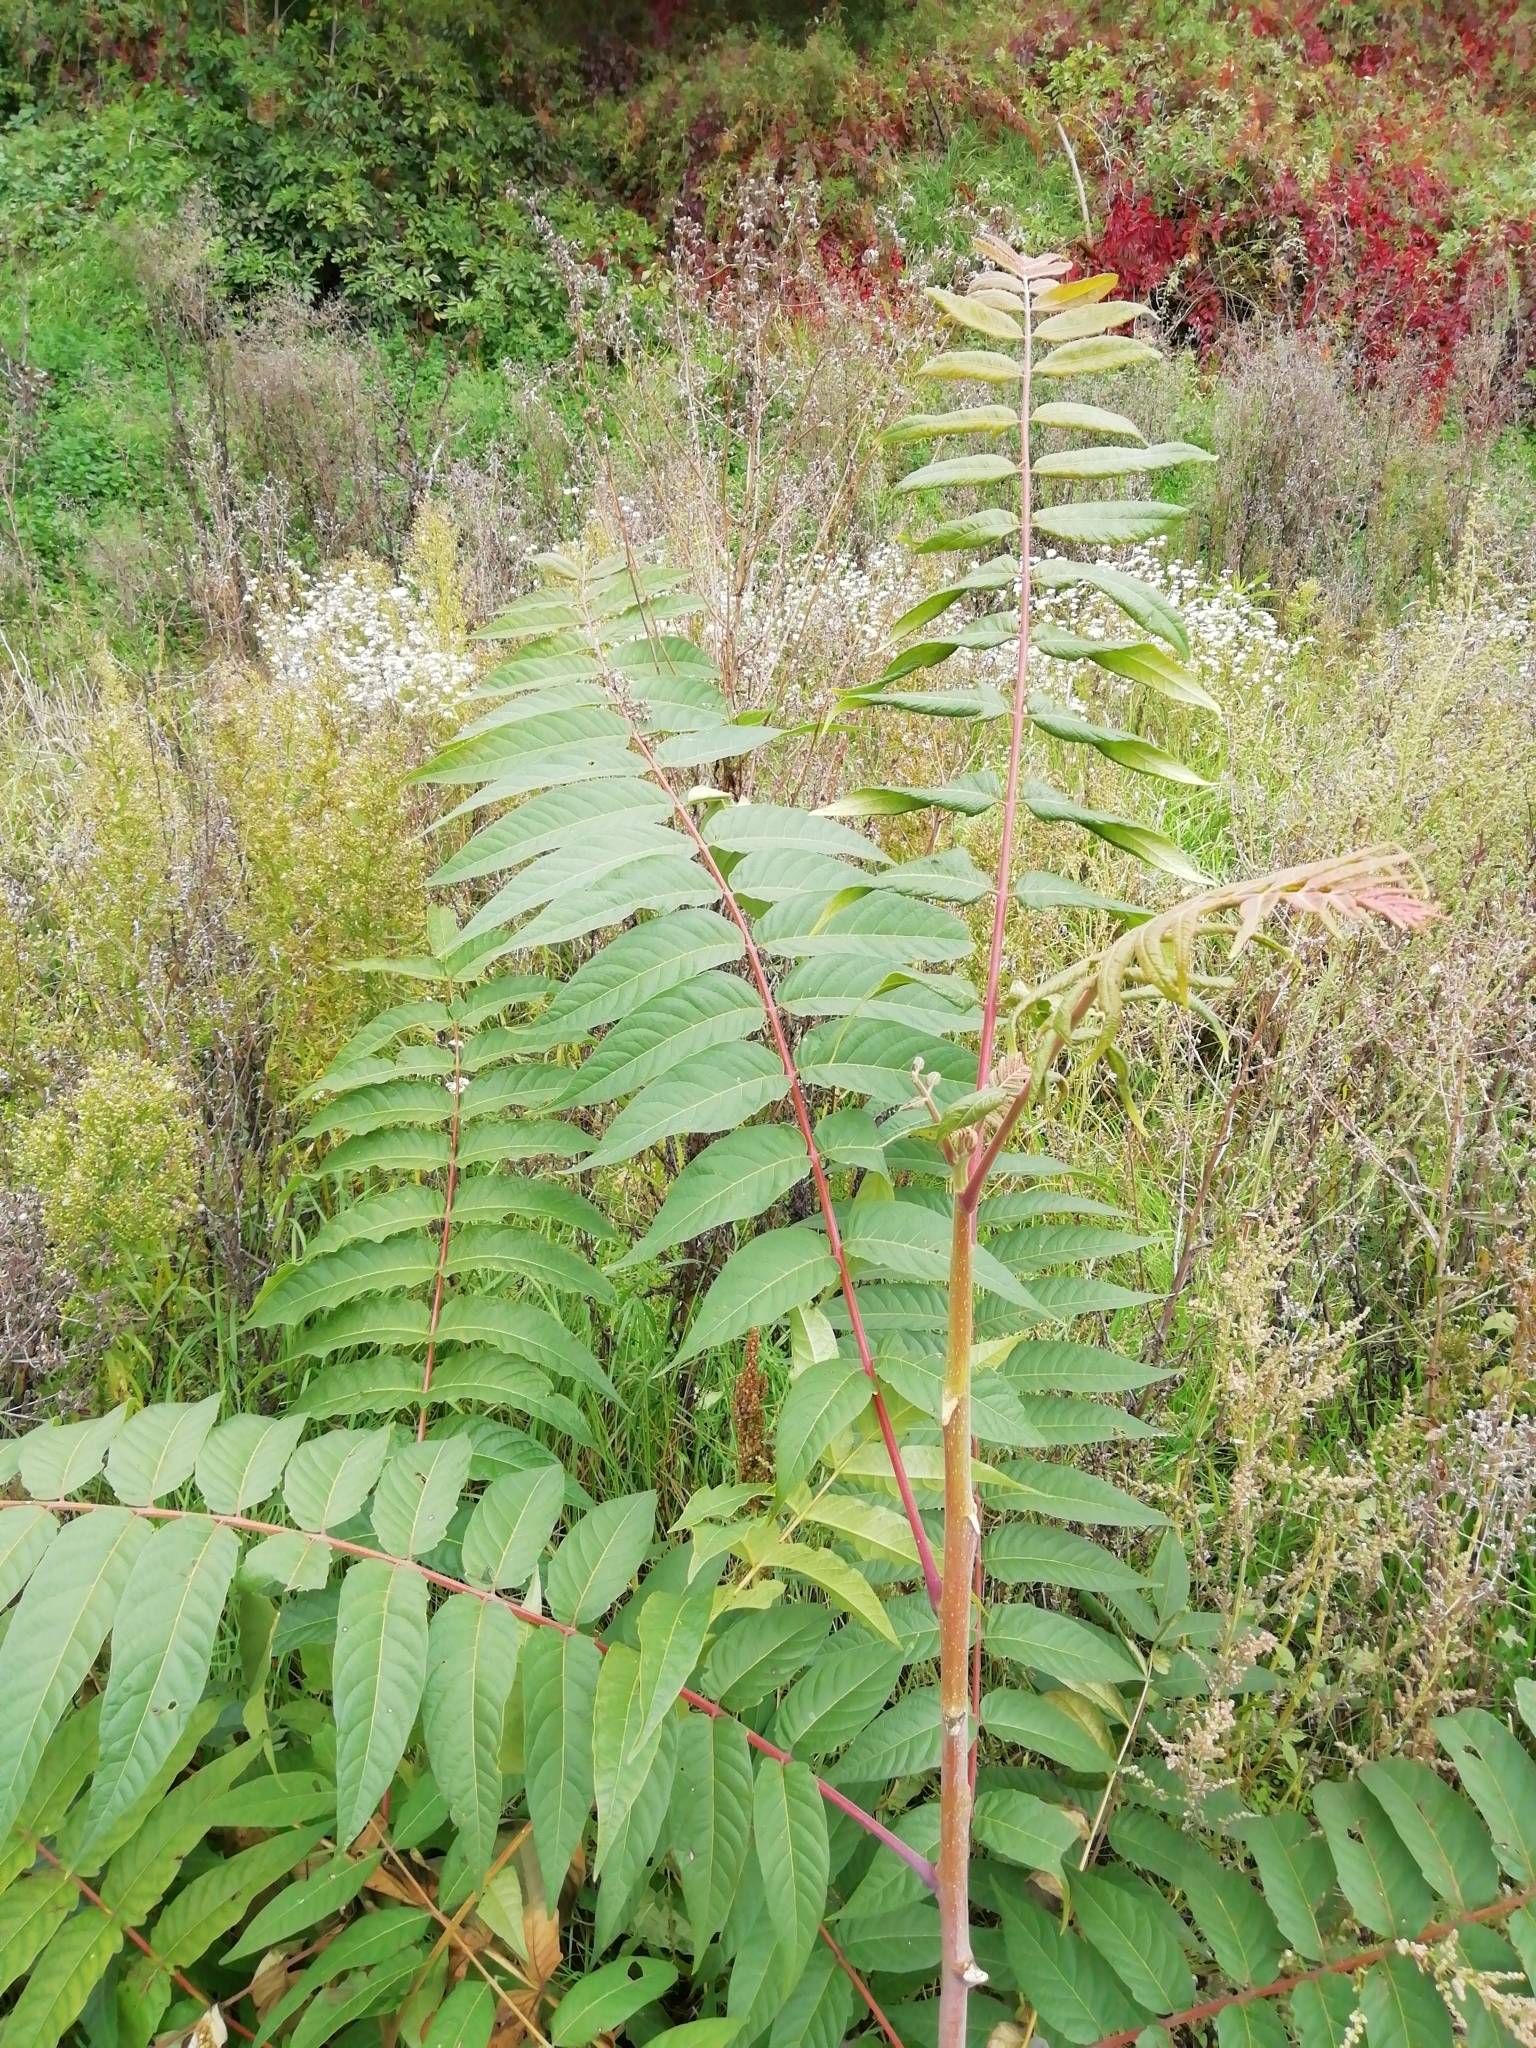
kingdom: Plantae
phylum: Tracheophyta
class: Magnoliopsida
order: Sapindales
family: Simaroubaceae
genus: Ailanthus
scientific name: Ailanthus altissima
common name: Tree-of-heaven
